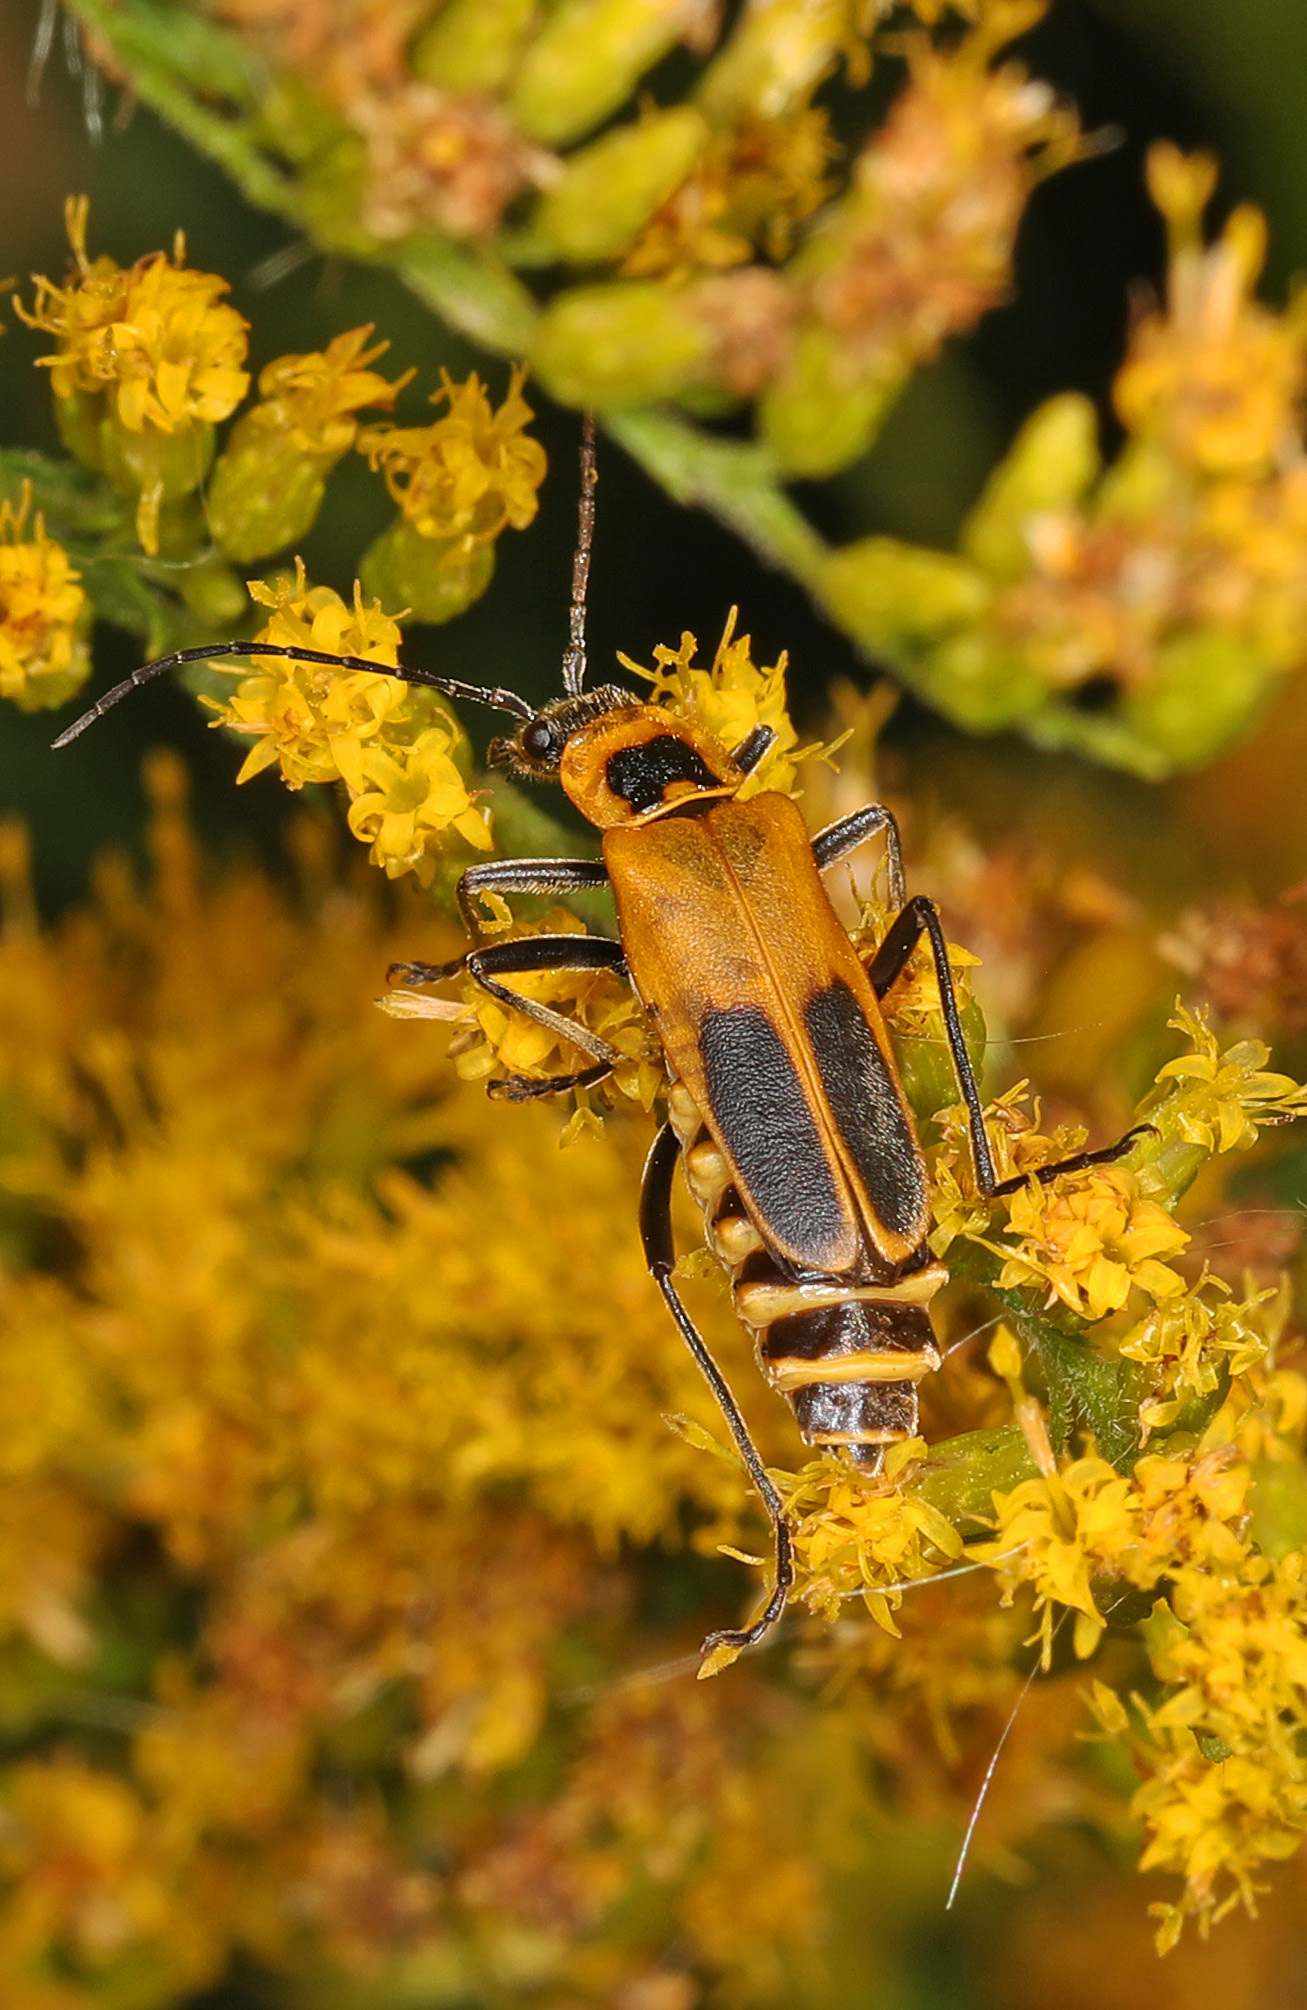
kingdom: Animalia
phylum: Arthropoda
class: Insecta
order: Coleoptera
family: Cantharidae
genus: Chauliognathus
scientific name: Chauliognathus pensylvanicus
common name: Goldenrod soldier beetle
